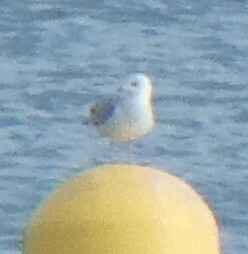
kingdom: Animalia
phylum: Chordata
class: Aves
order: Charadriiformes
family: Laridae
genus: Larus
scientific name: Larus canus
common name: Mew gull
